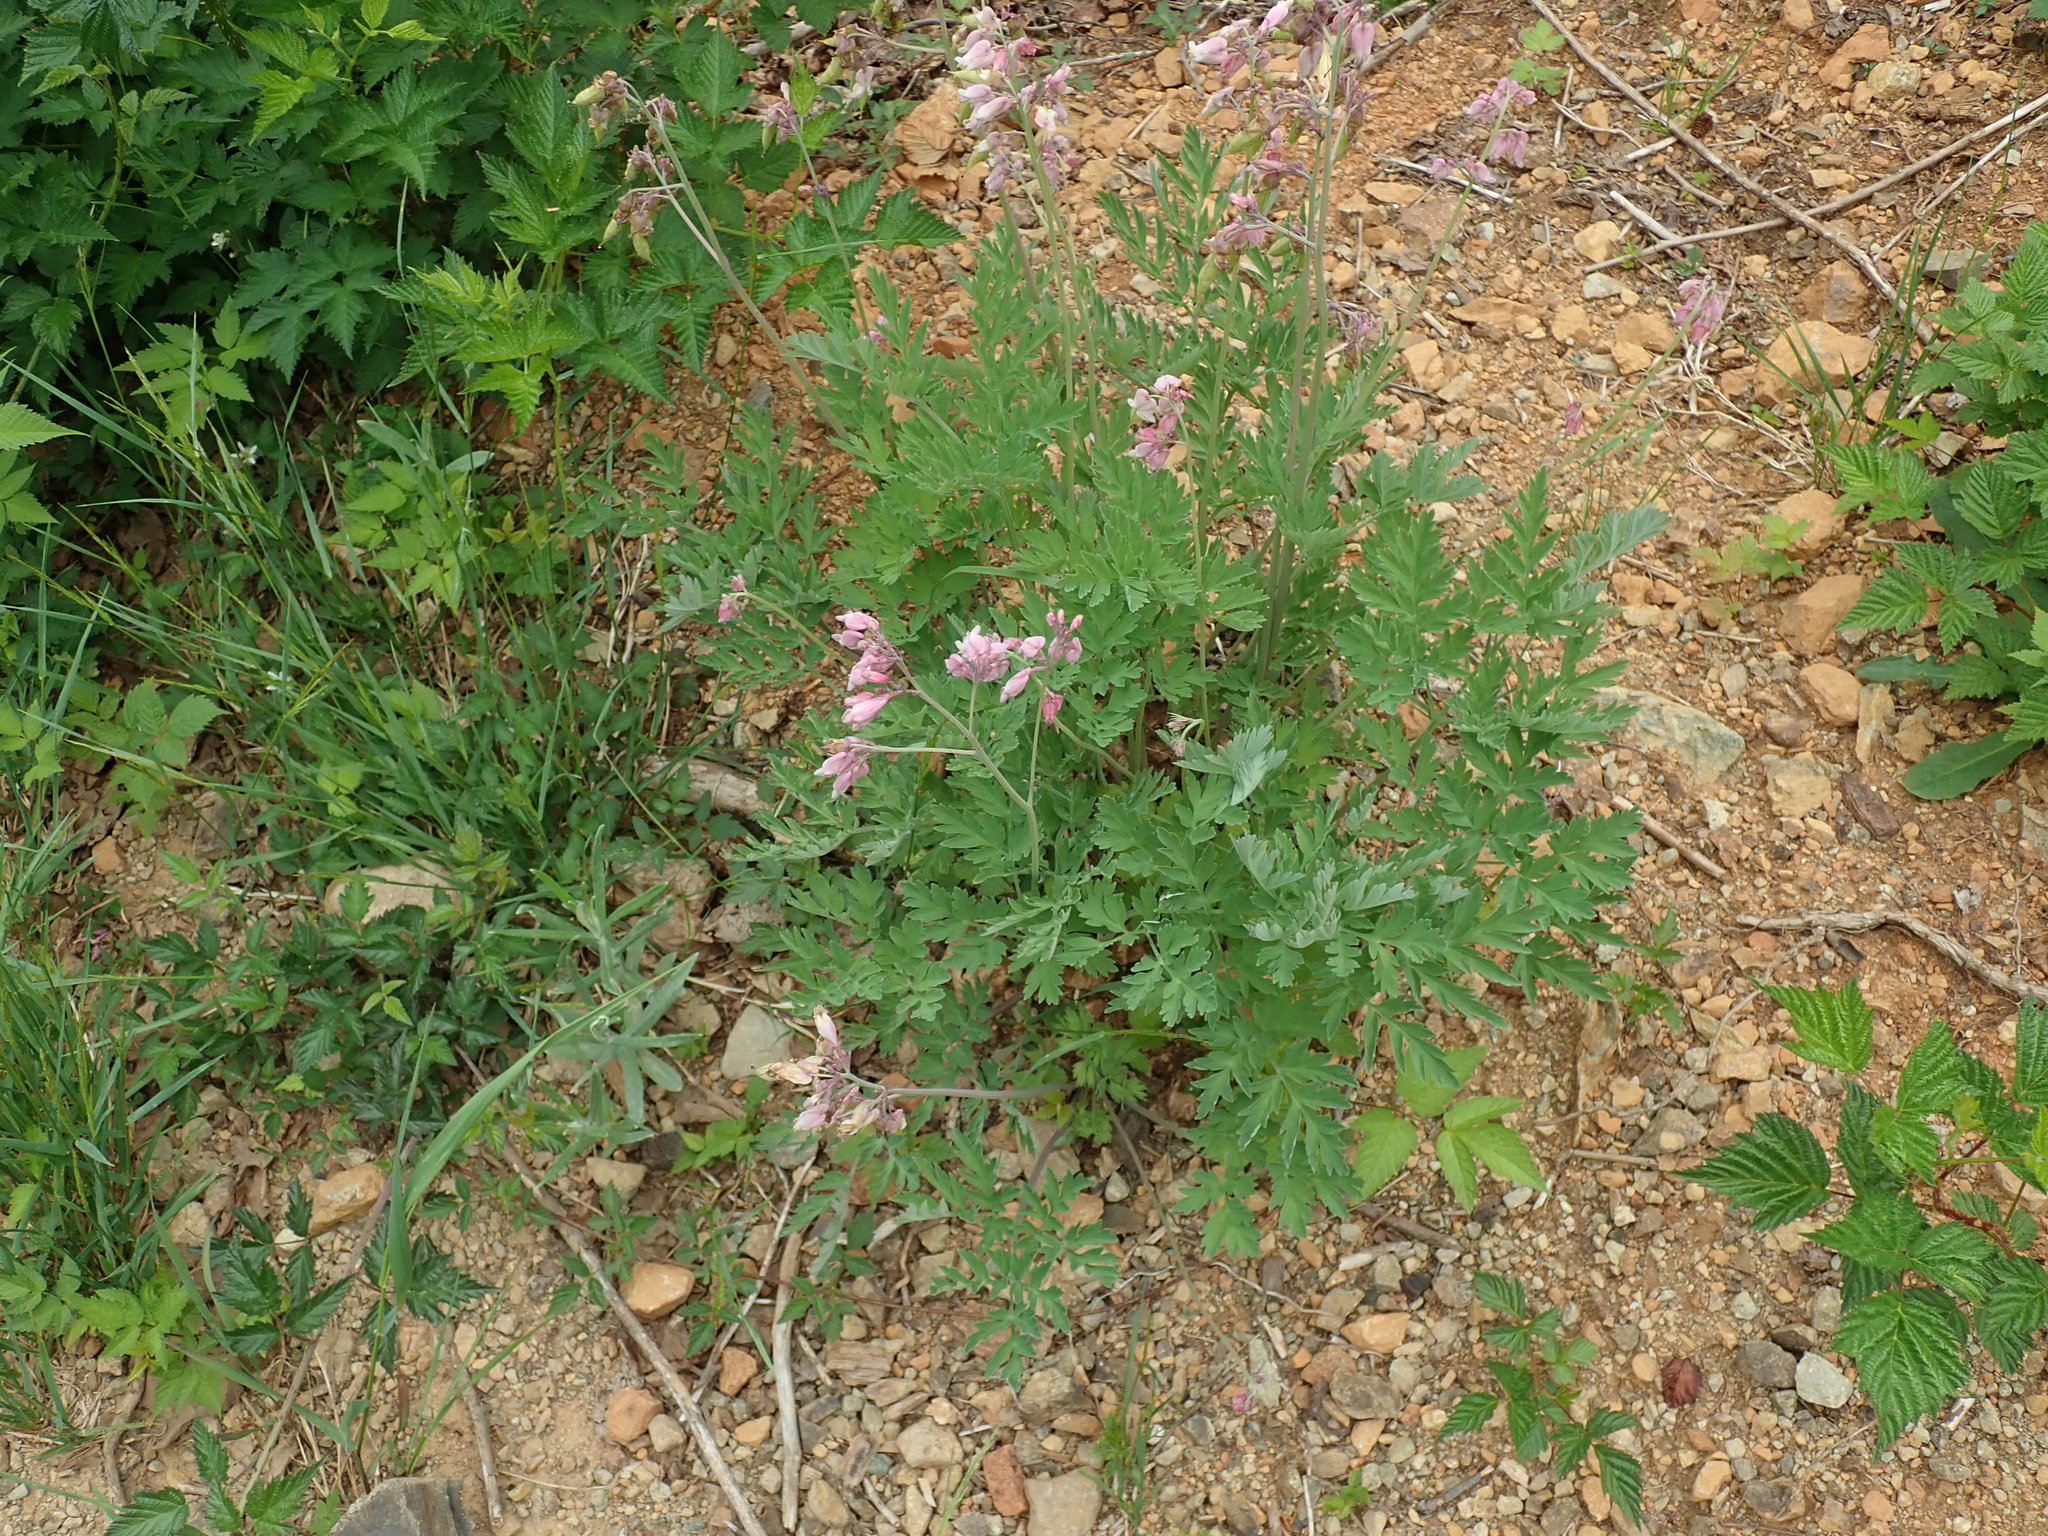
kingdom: Plantae
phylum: Tracheophyta
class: Magnoliopsida
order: Ranunculales
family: Papaveraceae
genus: Dicentra
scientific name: Dicentra formosa
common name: Bleeding-heart
